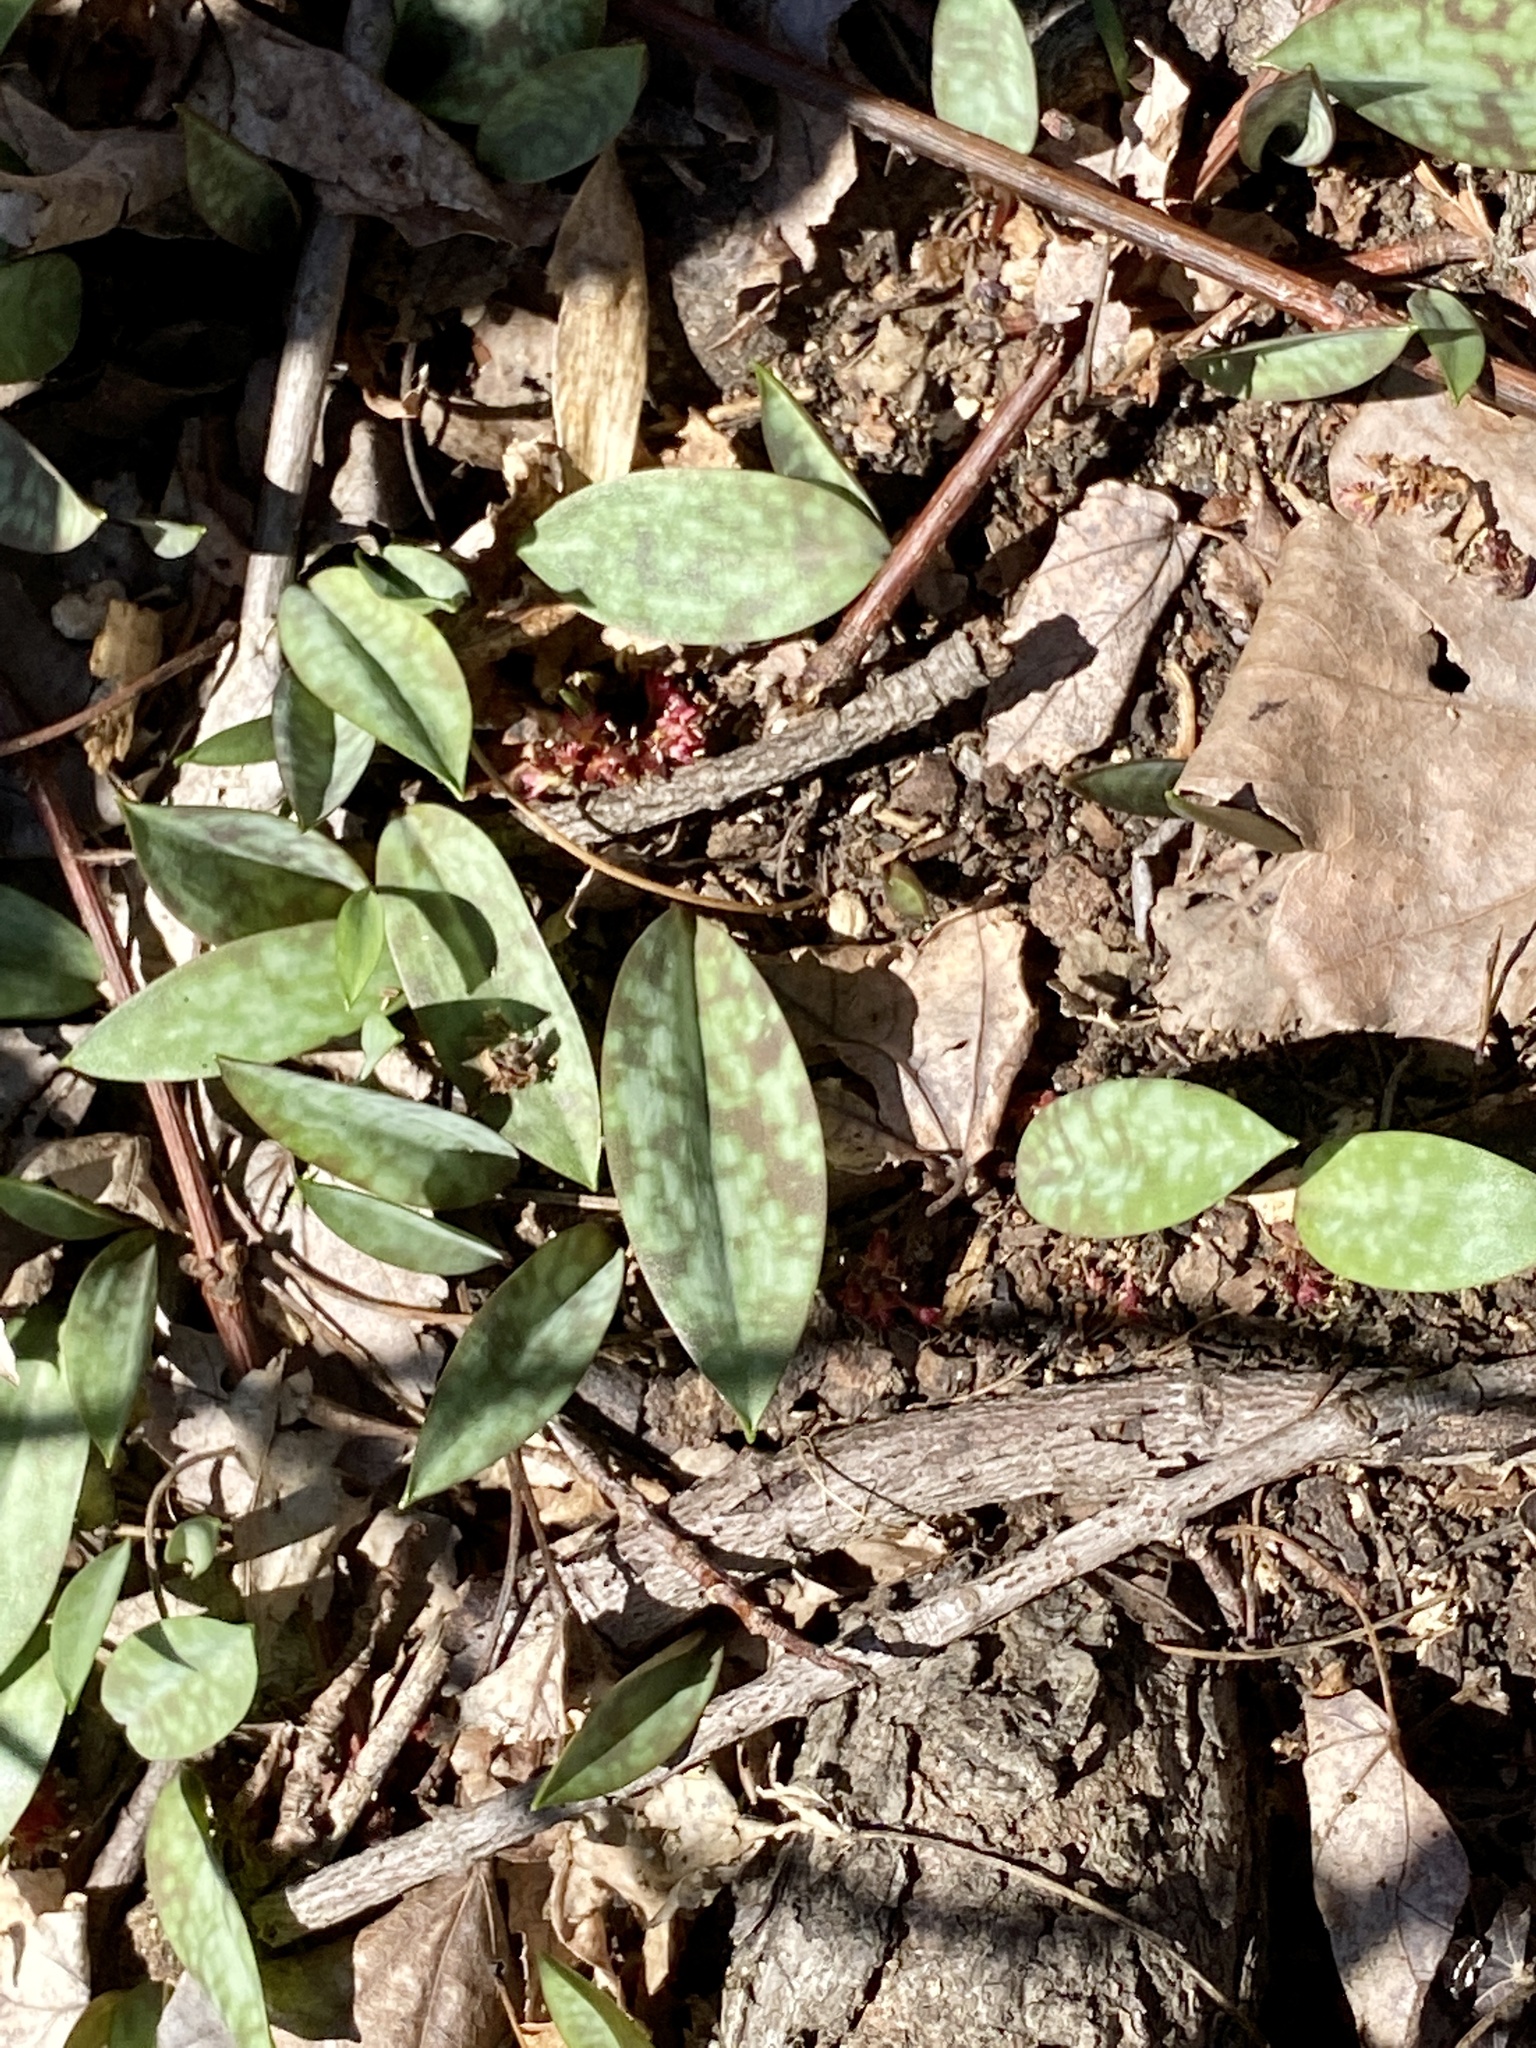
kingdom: Plantae
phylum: Tracheophyta
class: Liliopsida
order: Liliales
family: Liliaceae
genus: Erythronium
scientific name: Erythronium americanum
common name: Yellow adder's-tongue
